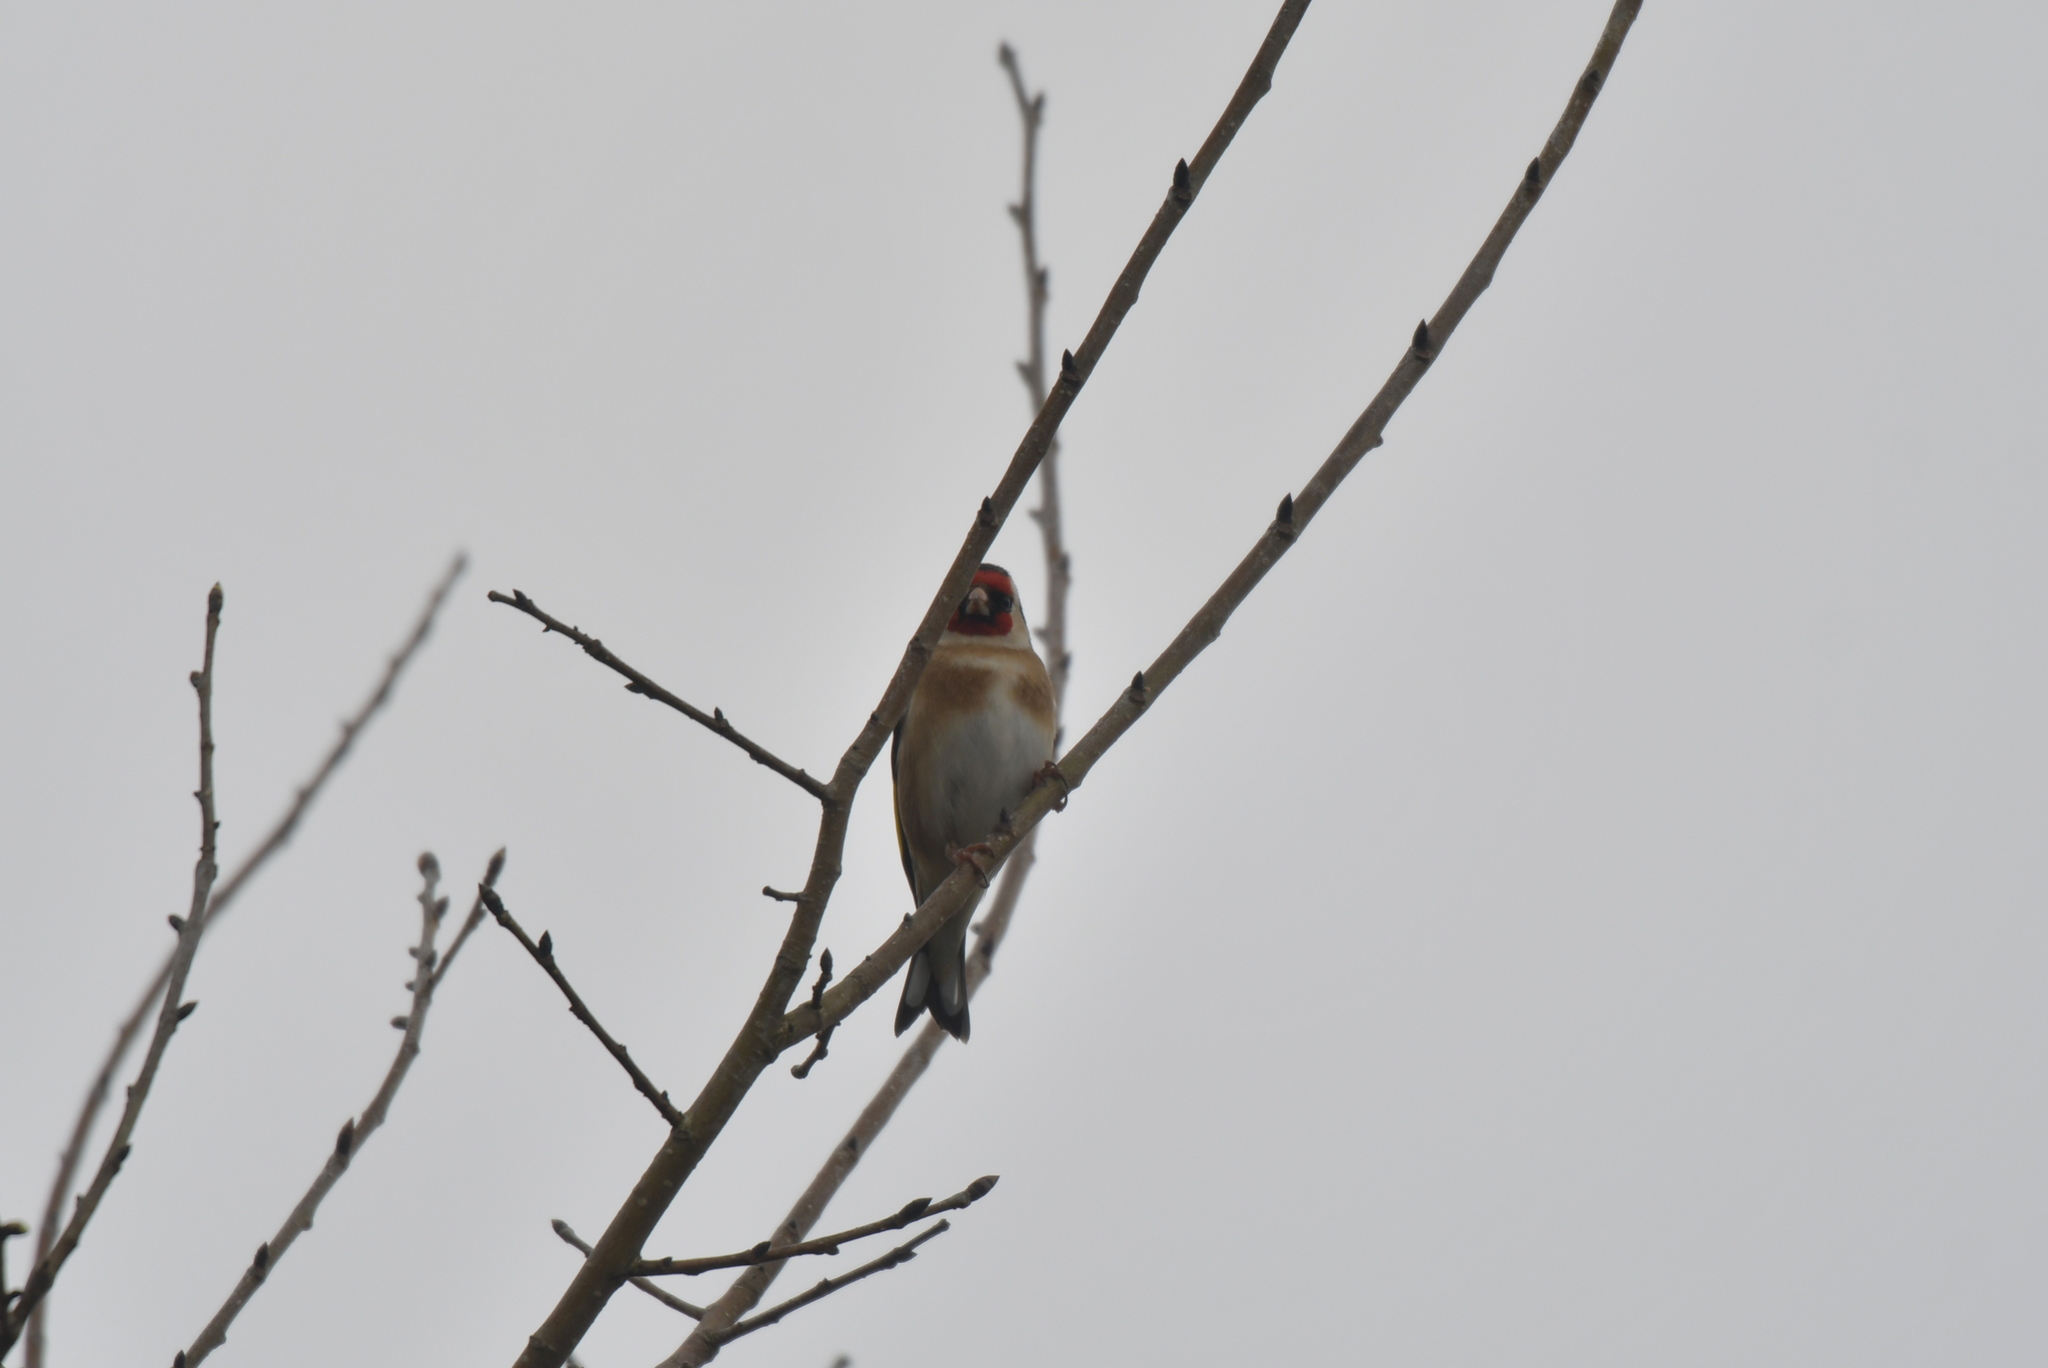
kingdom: Animalia
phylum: Chordata
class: Aves
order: Passeriformes
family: Fringillidae
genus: Carduelis
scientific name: Carduelis carduelis
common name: European goldfinch
